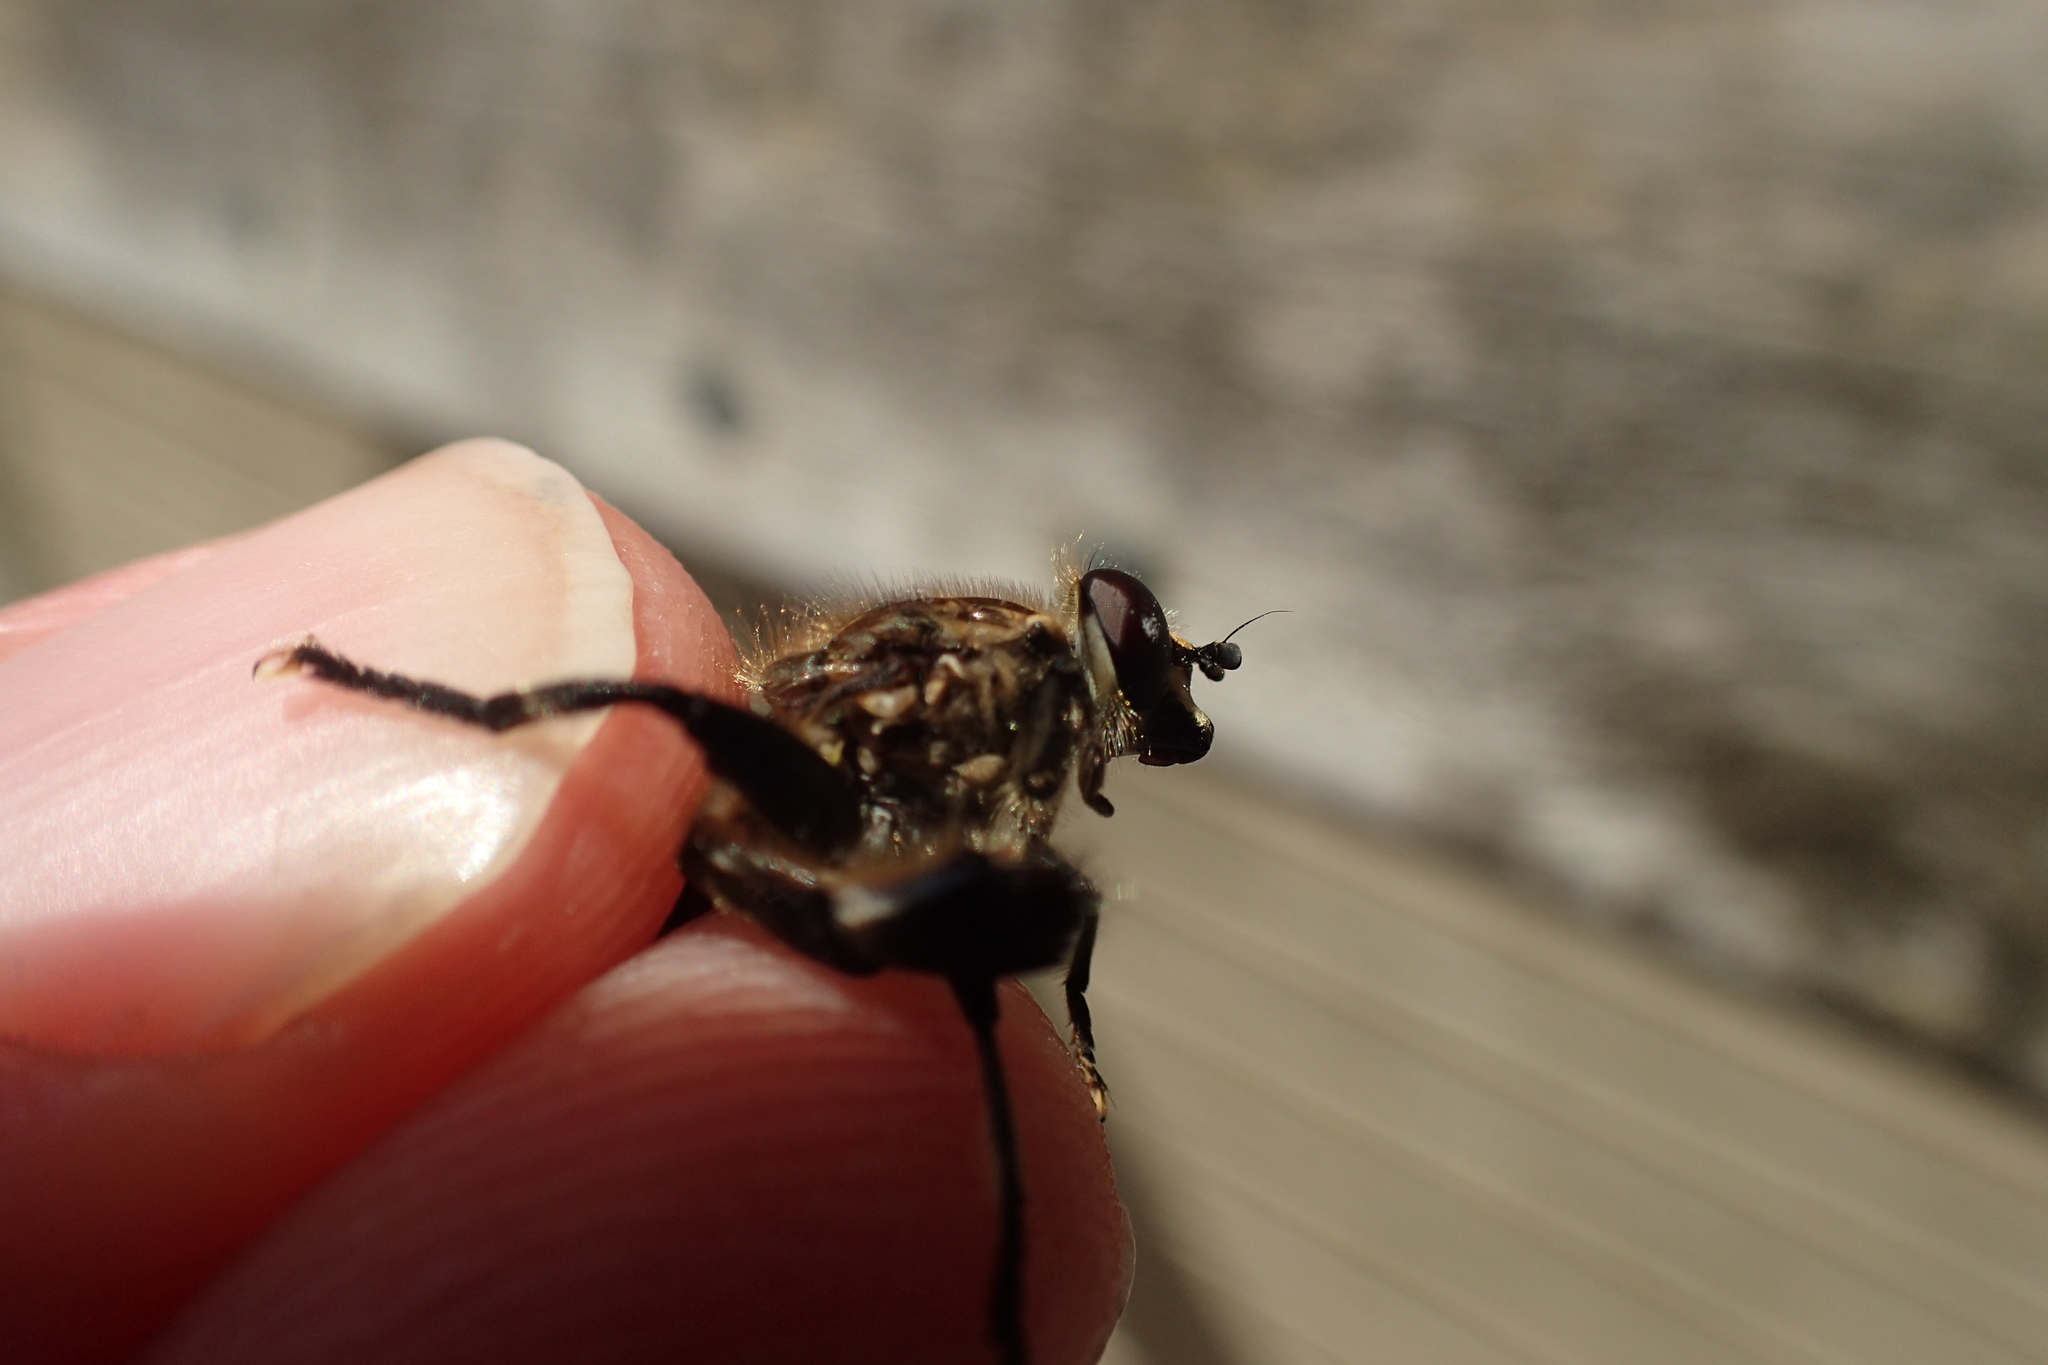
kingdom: Animalia
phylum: Arthropoda
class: Insecta
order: Diptera
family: Syrphidae
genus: Orthoprosopa
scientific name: Orthoprosopa bilineata
